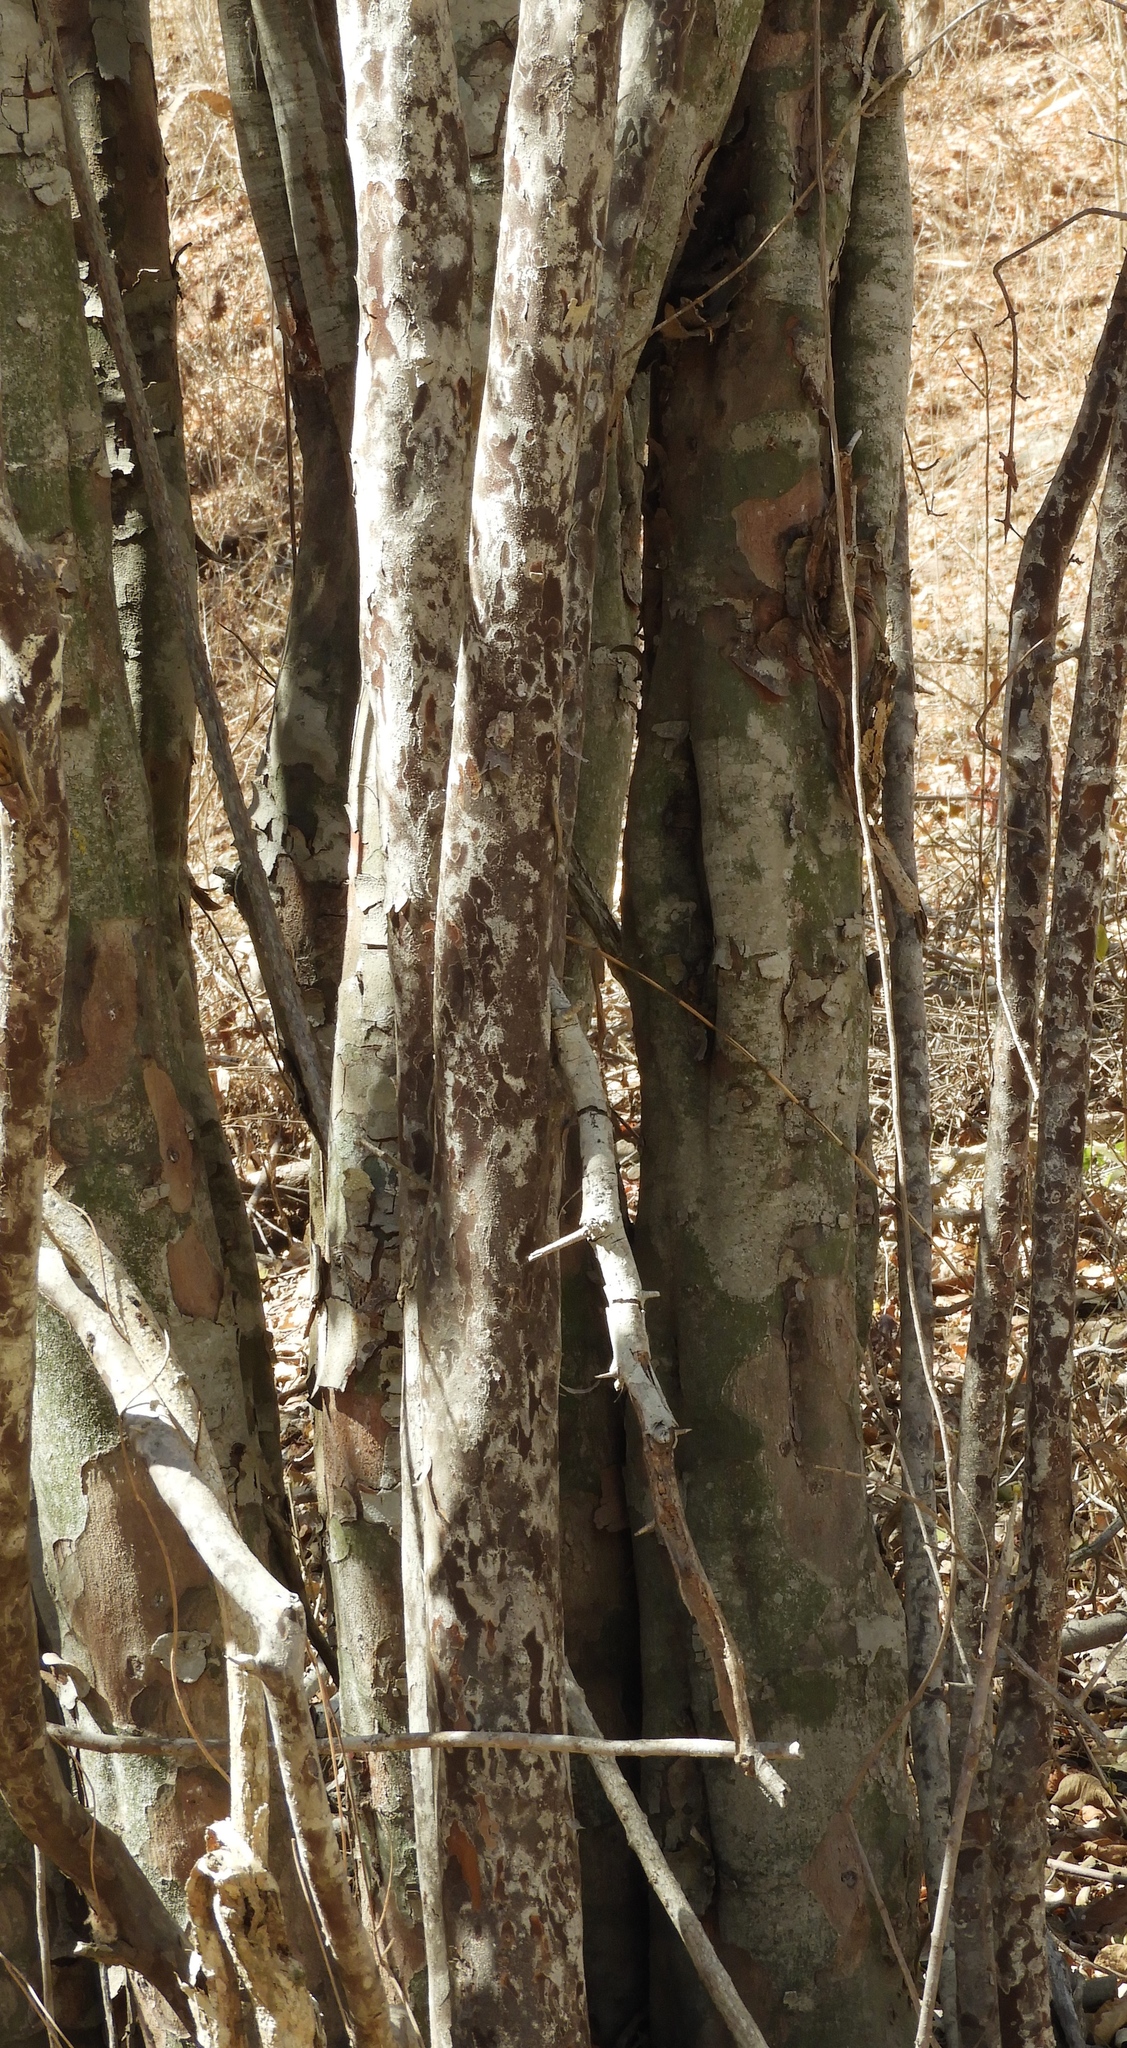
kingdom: Plantae
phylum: Tracheophyta
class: Magnoliopsida
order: Rosales
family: Rhamnaceae
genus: Sarcomphalus
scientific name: Sarcomphalus obtusifolius
